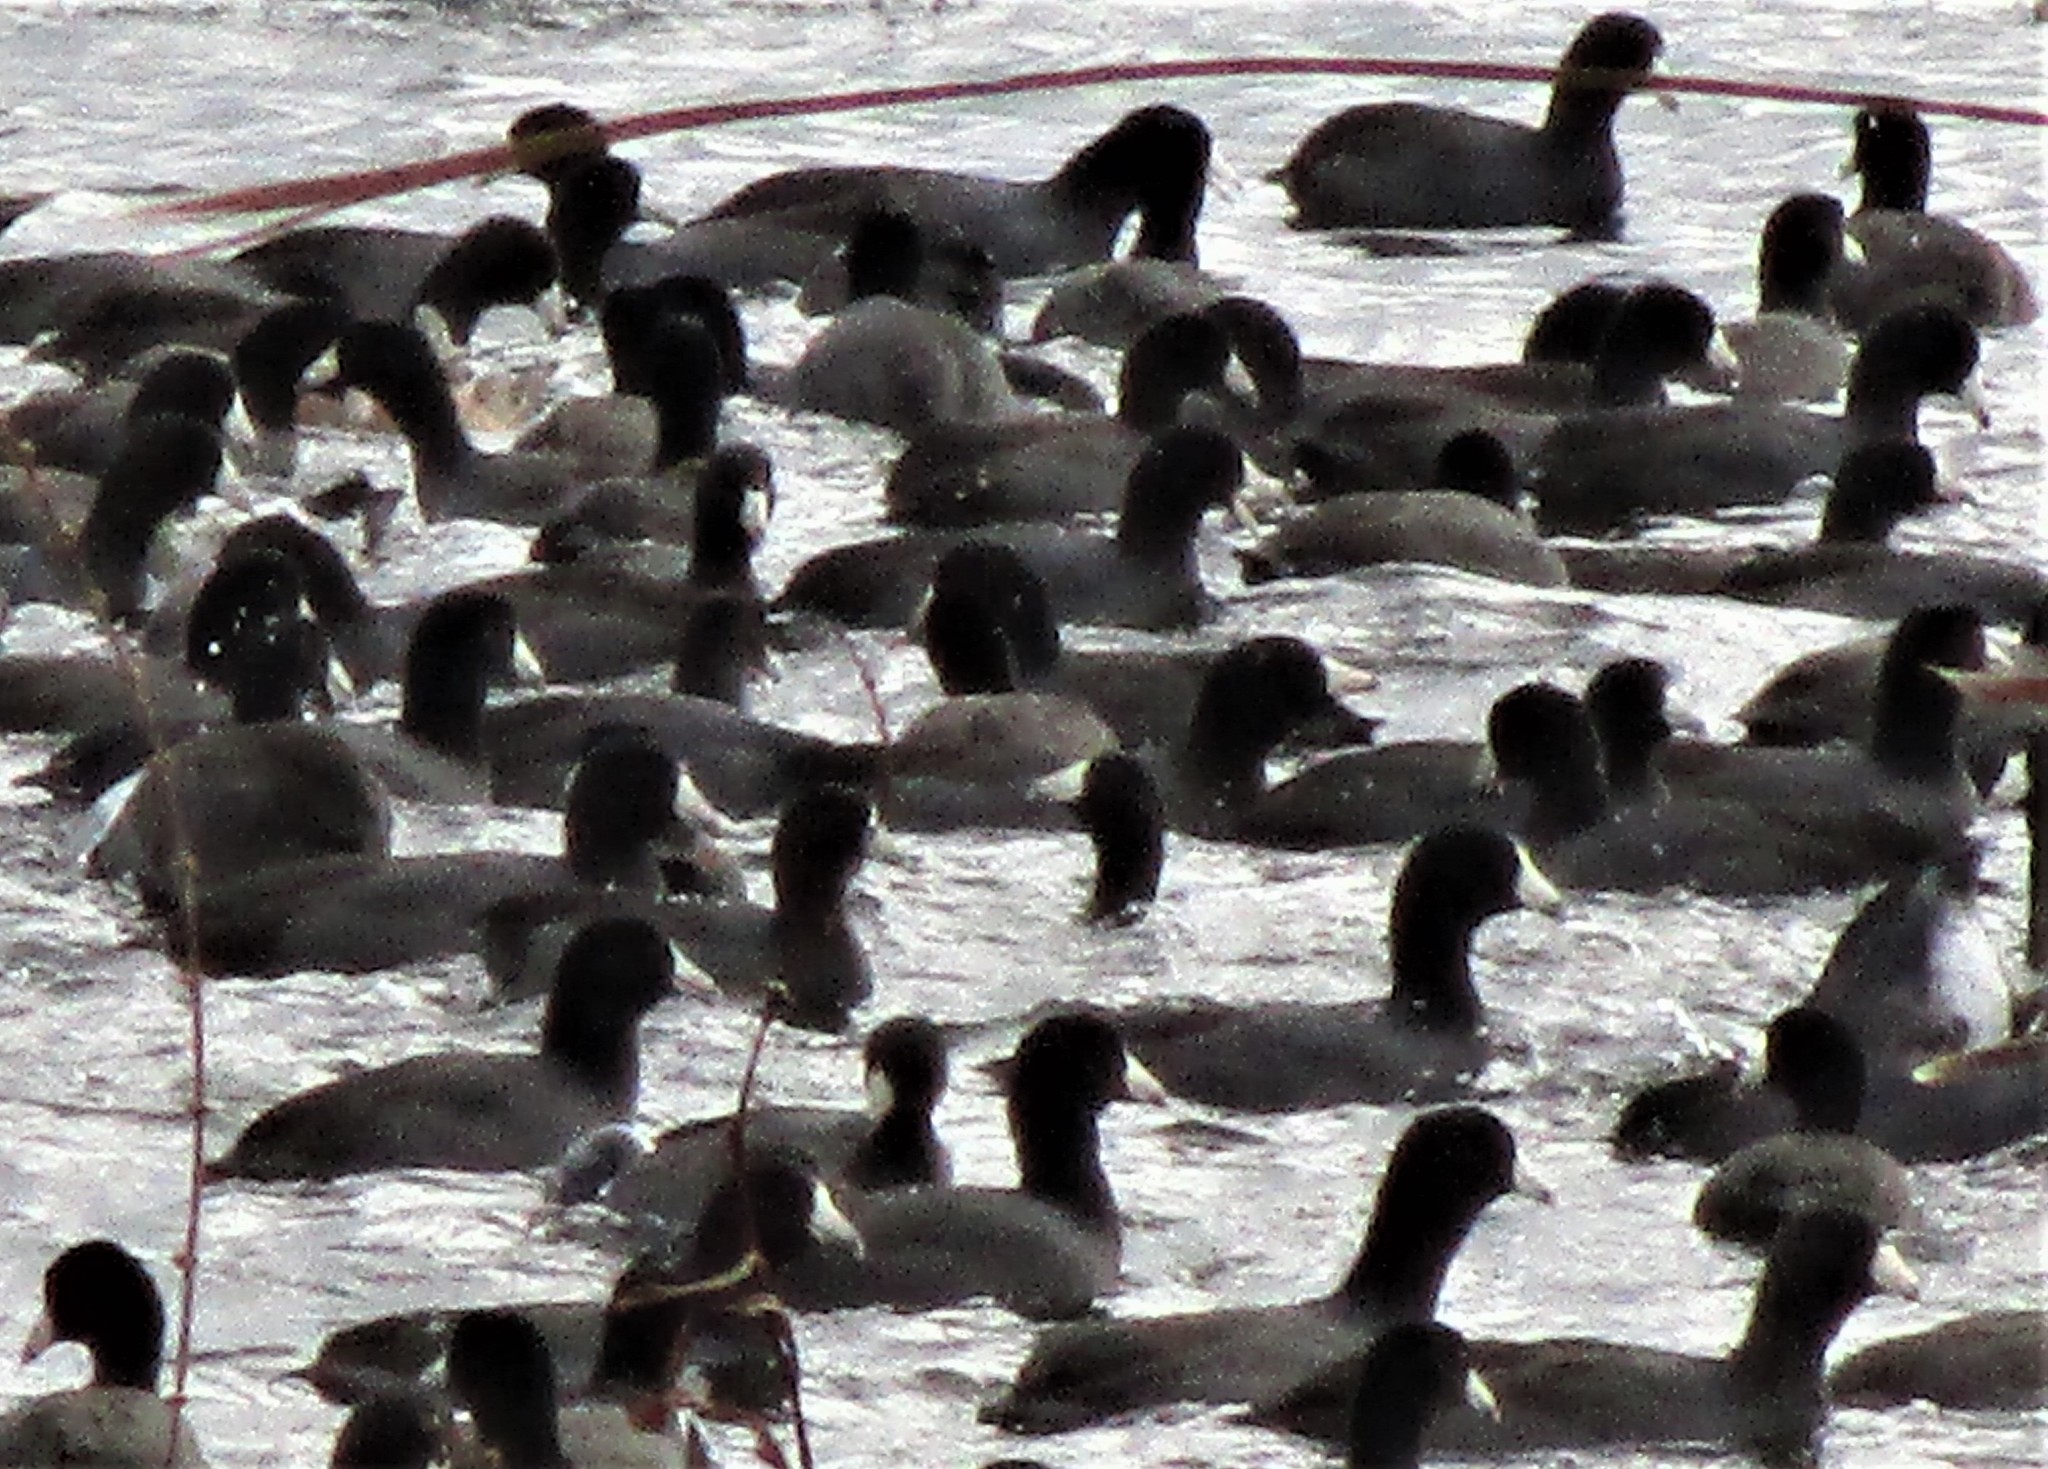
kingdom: Animalia
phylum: Chordata
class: Aves
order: Gruiformes
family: Rallidae
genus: Fulica
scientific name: Fulica americana
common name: American coot
